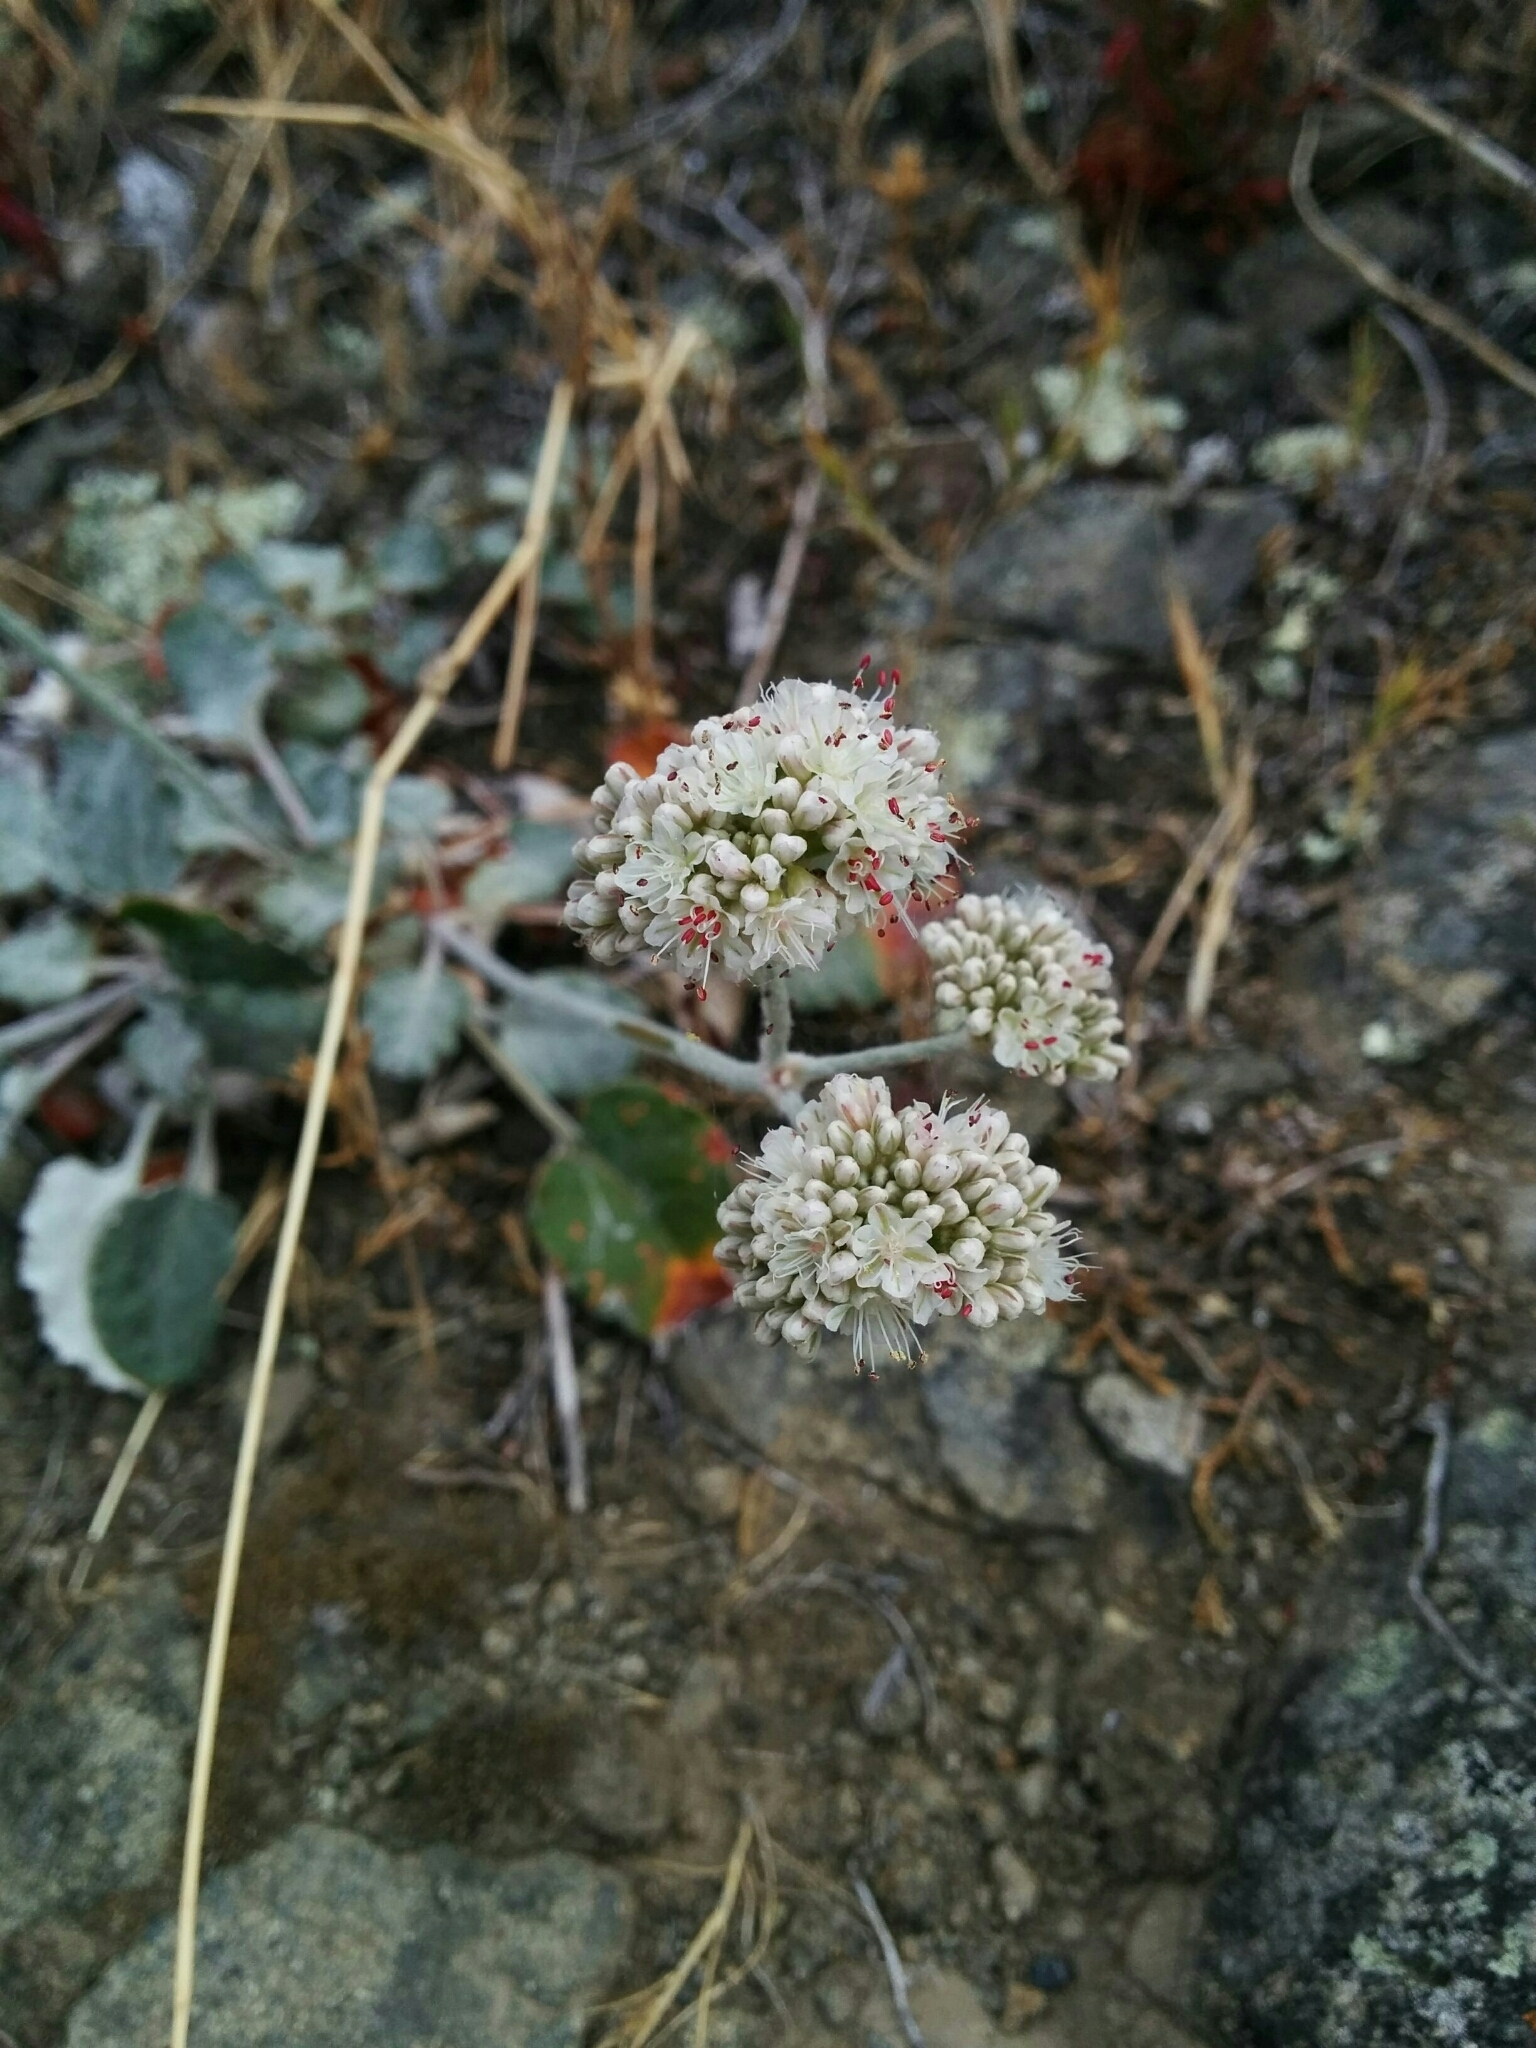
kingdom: Plantae
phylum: Tracheophyta
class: Magnoliopsida
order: Caryophyllales
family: Polygonaceae
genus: Eriogonum
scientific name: Eriogonum latifolium
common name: Seaside wild buckwheat
